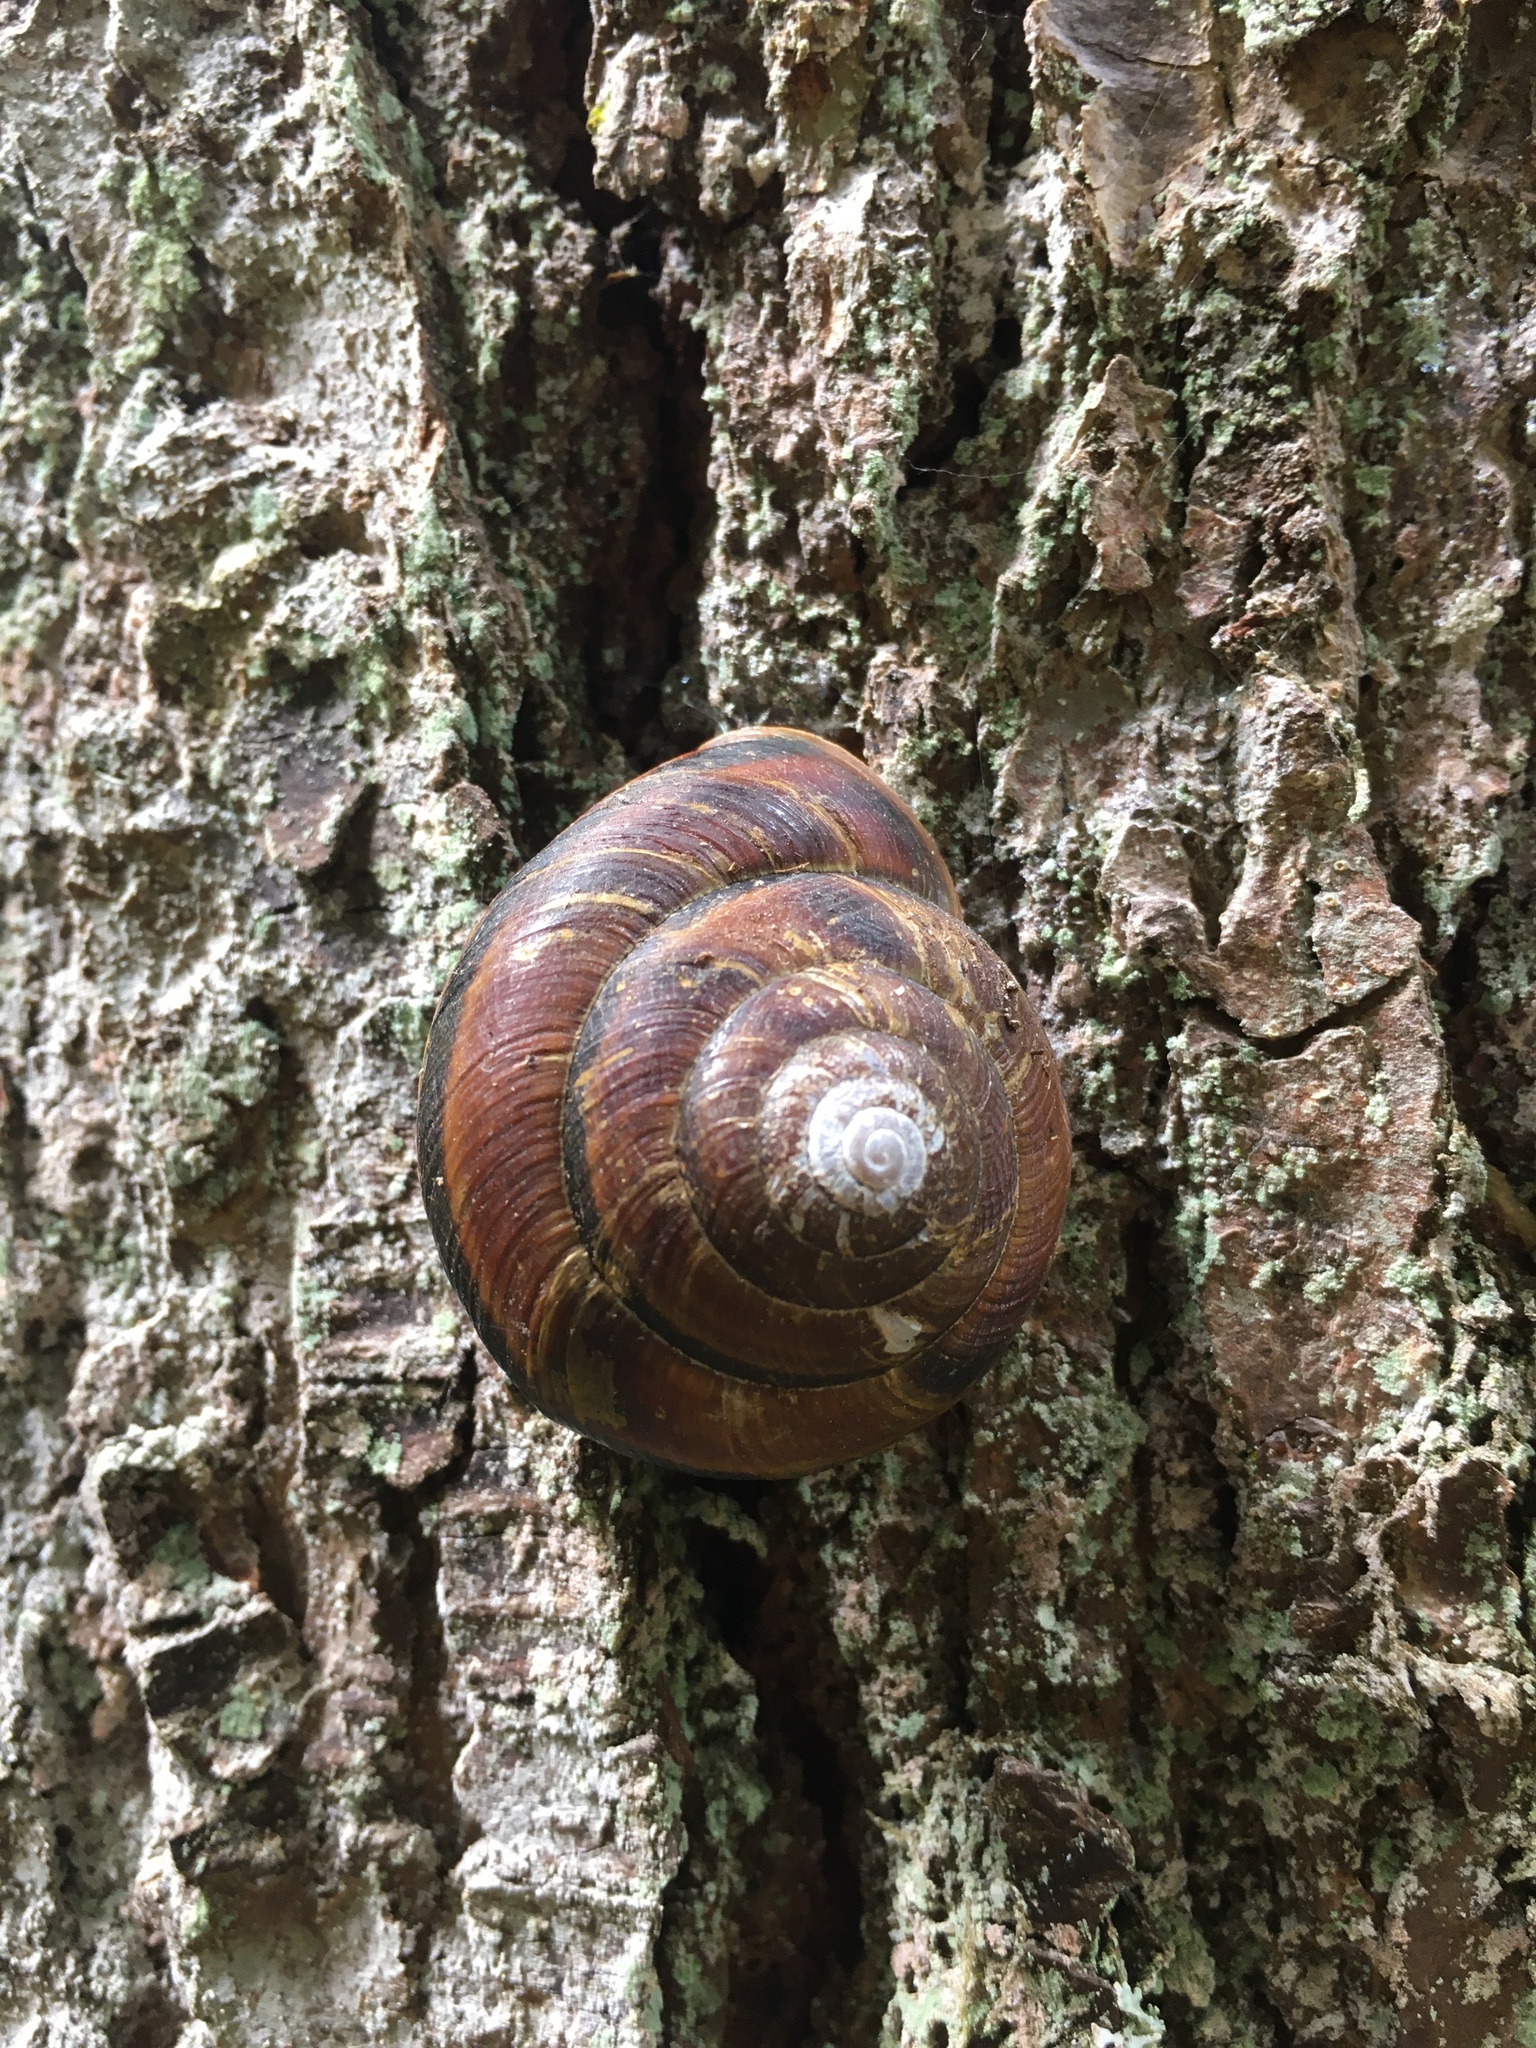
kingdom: Animalia
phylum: Mollusca
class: Gastropoda
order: Stylommatophora
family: Xanthonychidae
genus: Monadenia
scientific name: Monadenia fidelis
